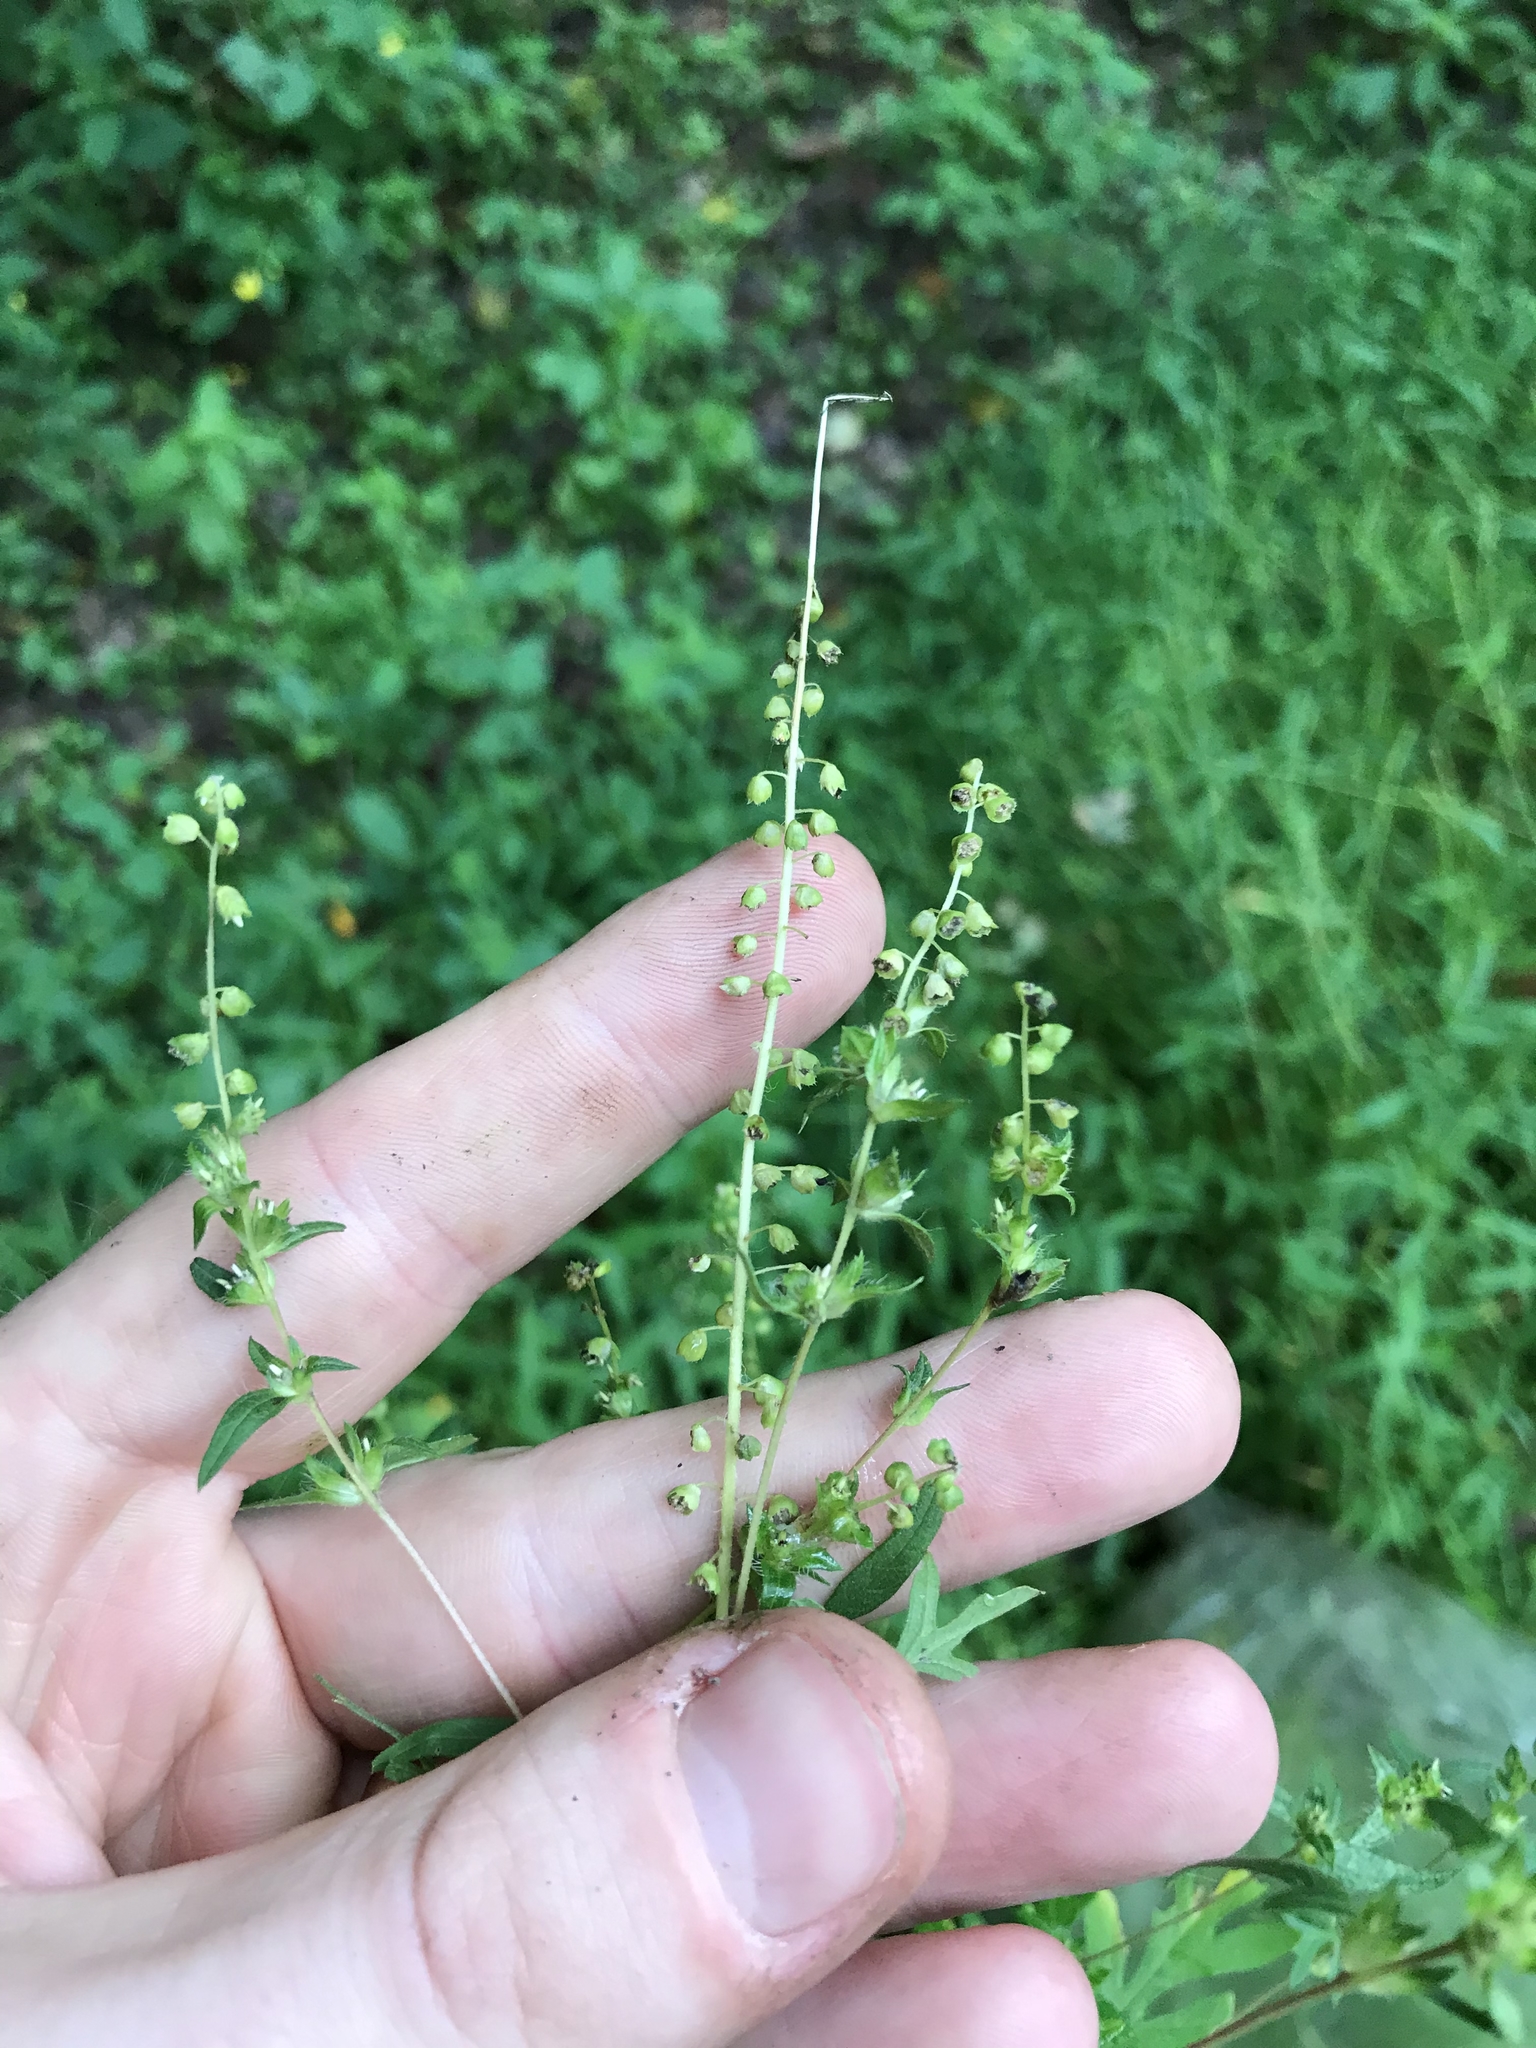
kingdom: Plantae
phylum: Tracheophyta
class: Magnoliopsida
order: Asterales
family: Asteraceae
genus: Ambrosia
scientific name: Ambrosia artemisiifolia
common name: Annual ragweed
